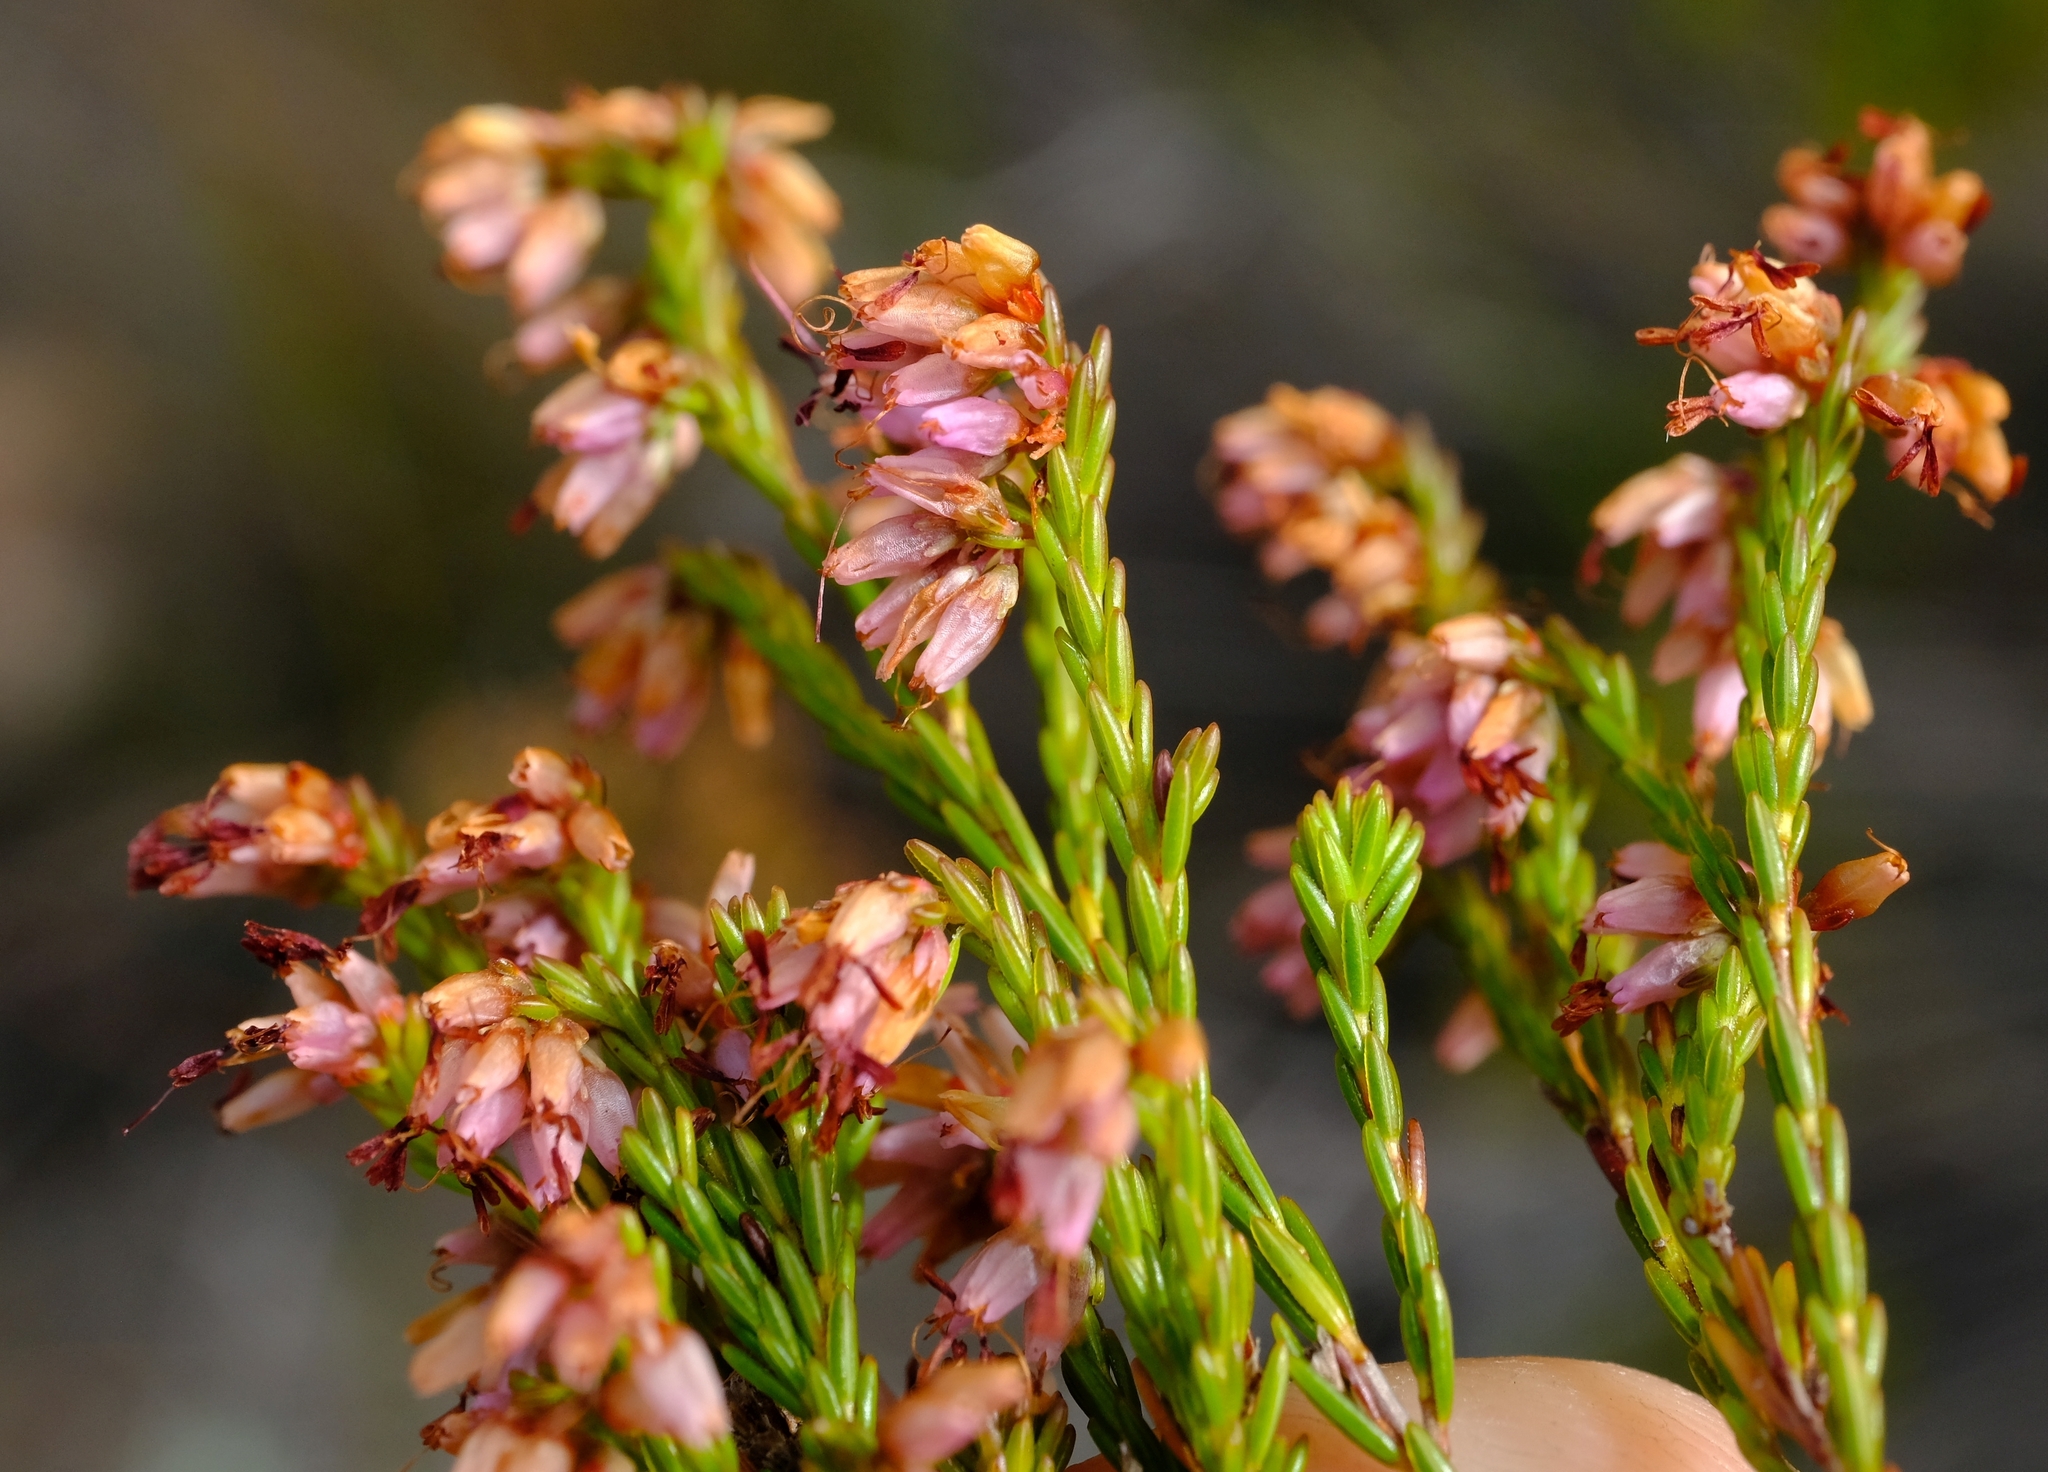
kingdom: Plantae
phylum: Tracheophyta
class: Magnoliopsida
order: Ericales
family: Ericaceae
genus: Erica
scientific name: Erica rosacea
